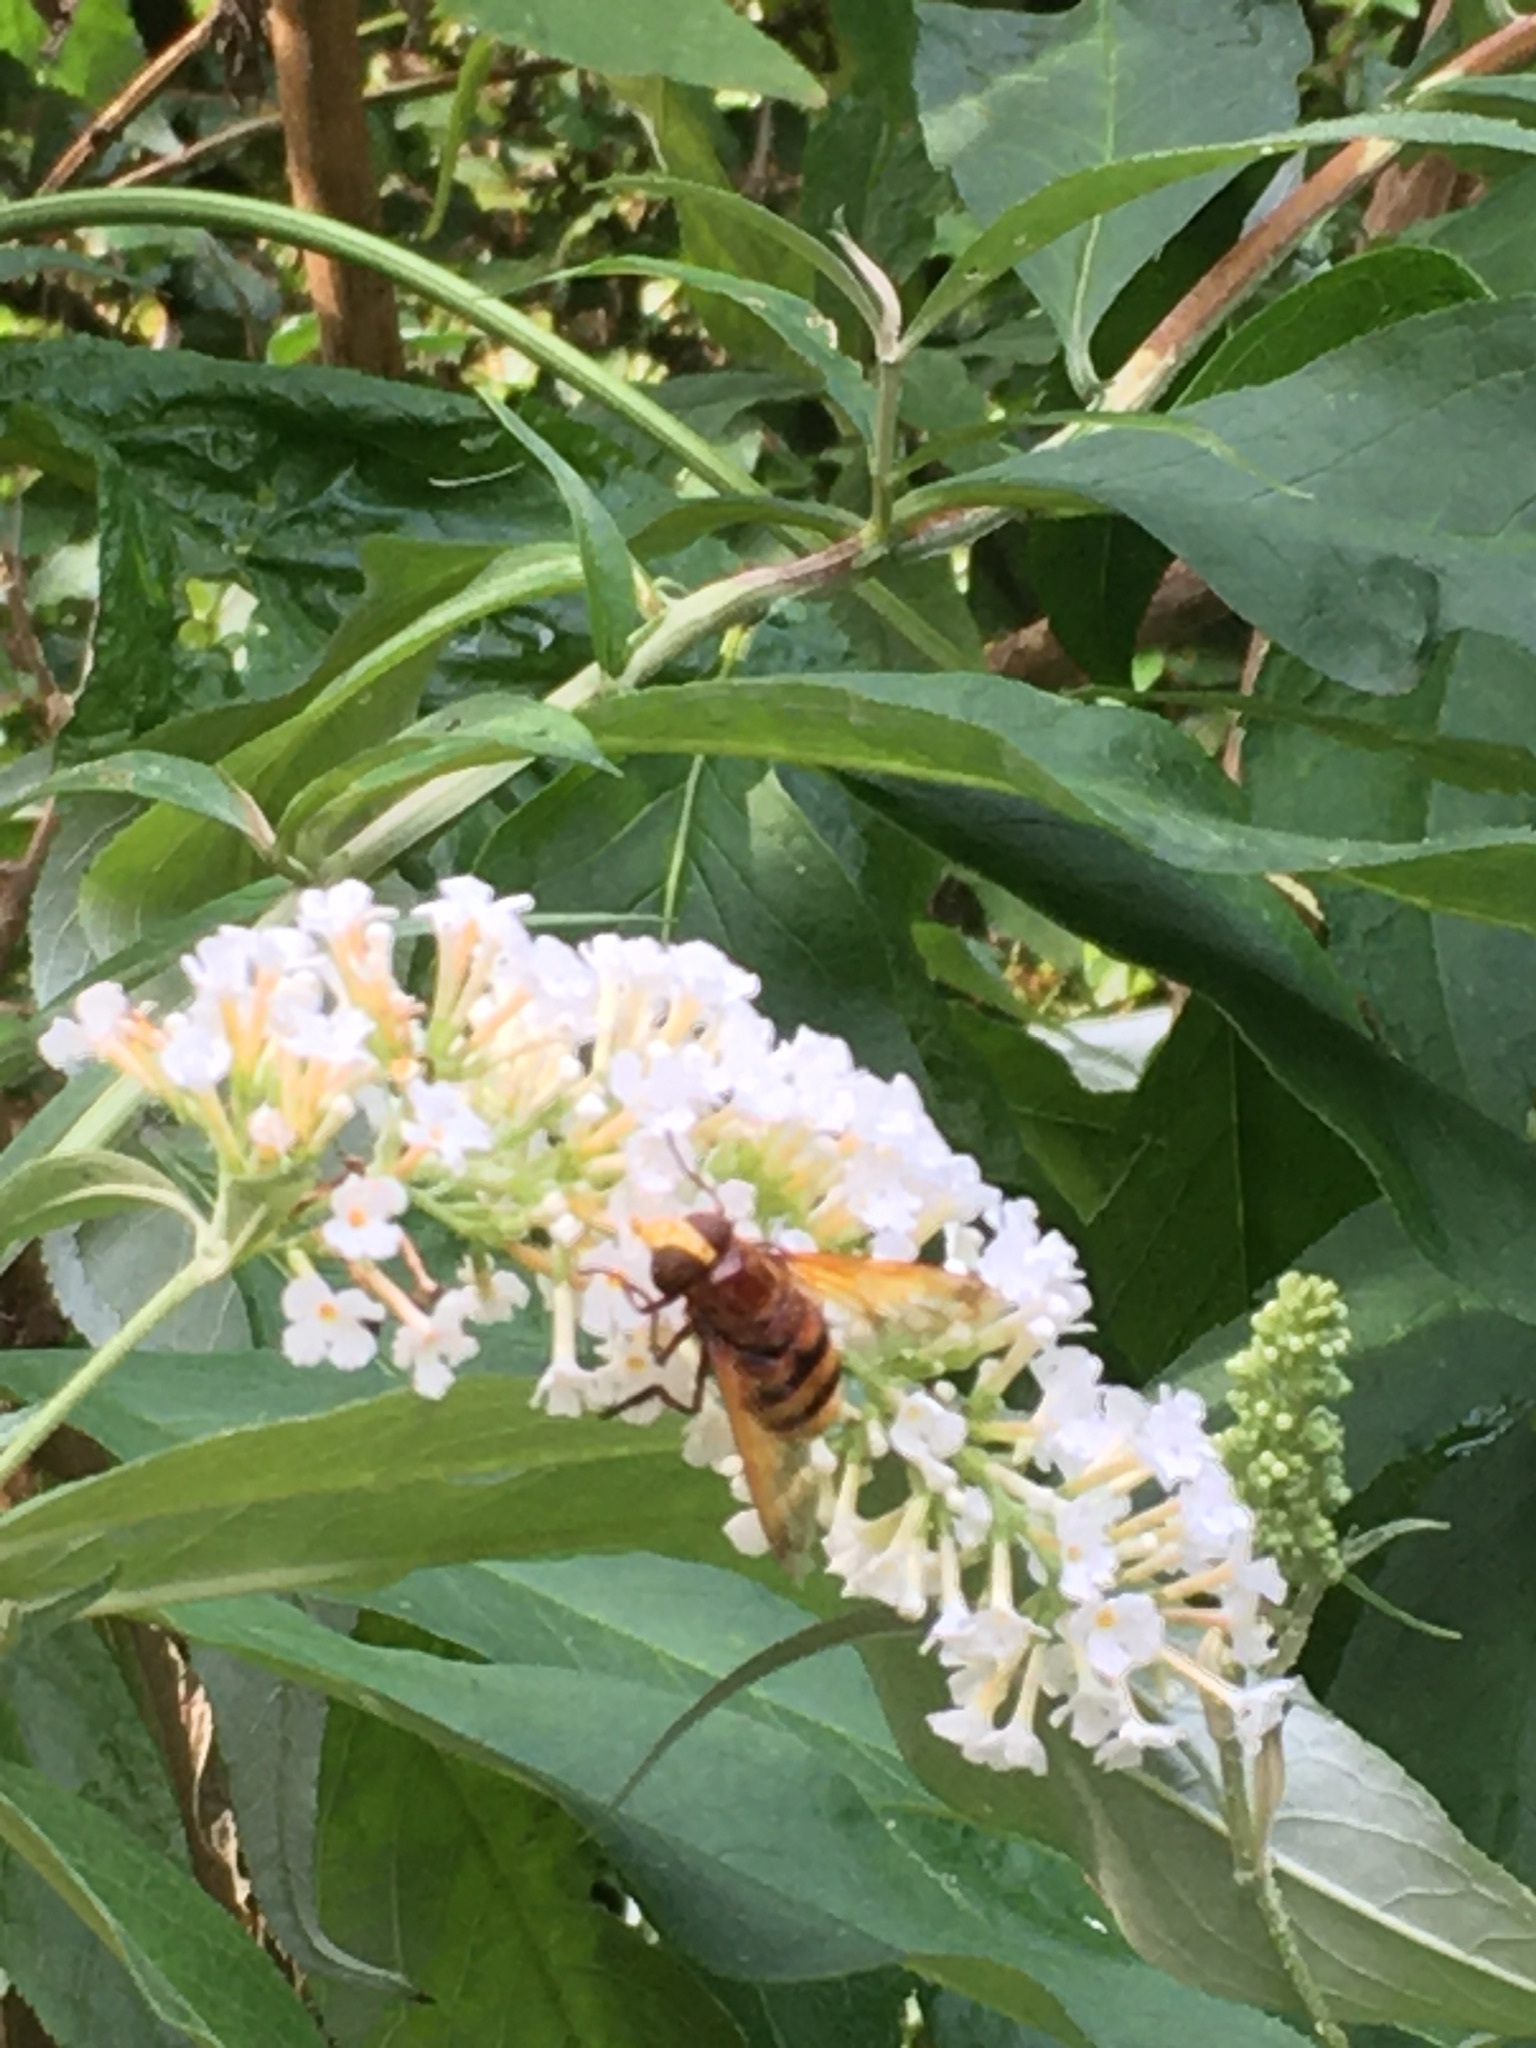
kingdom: Animalia
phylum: Arthropoda
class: Insecta
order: Diptera
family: Syrphidae
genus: Volucella
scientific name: Volucella zonaria
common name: Hornet hoverfly
